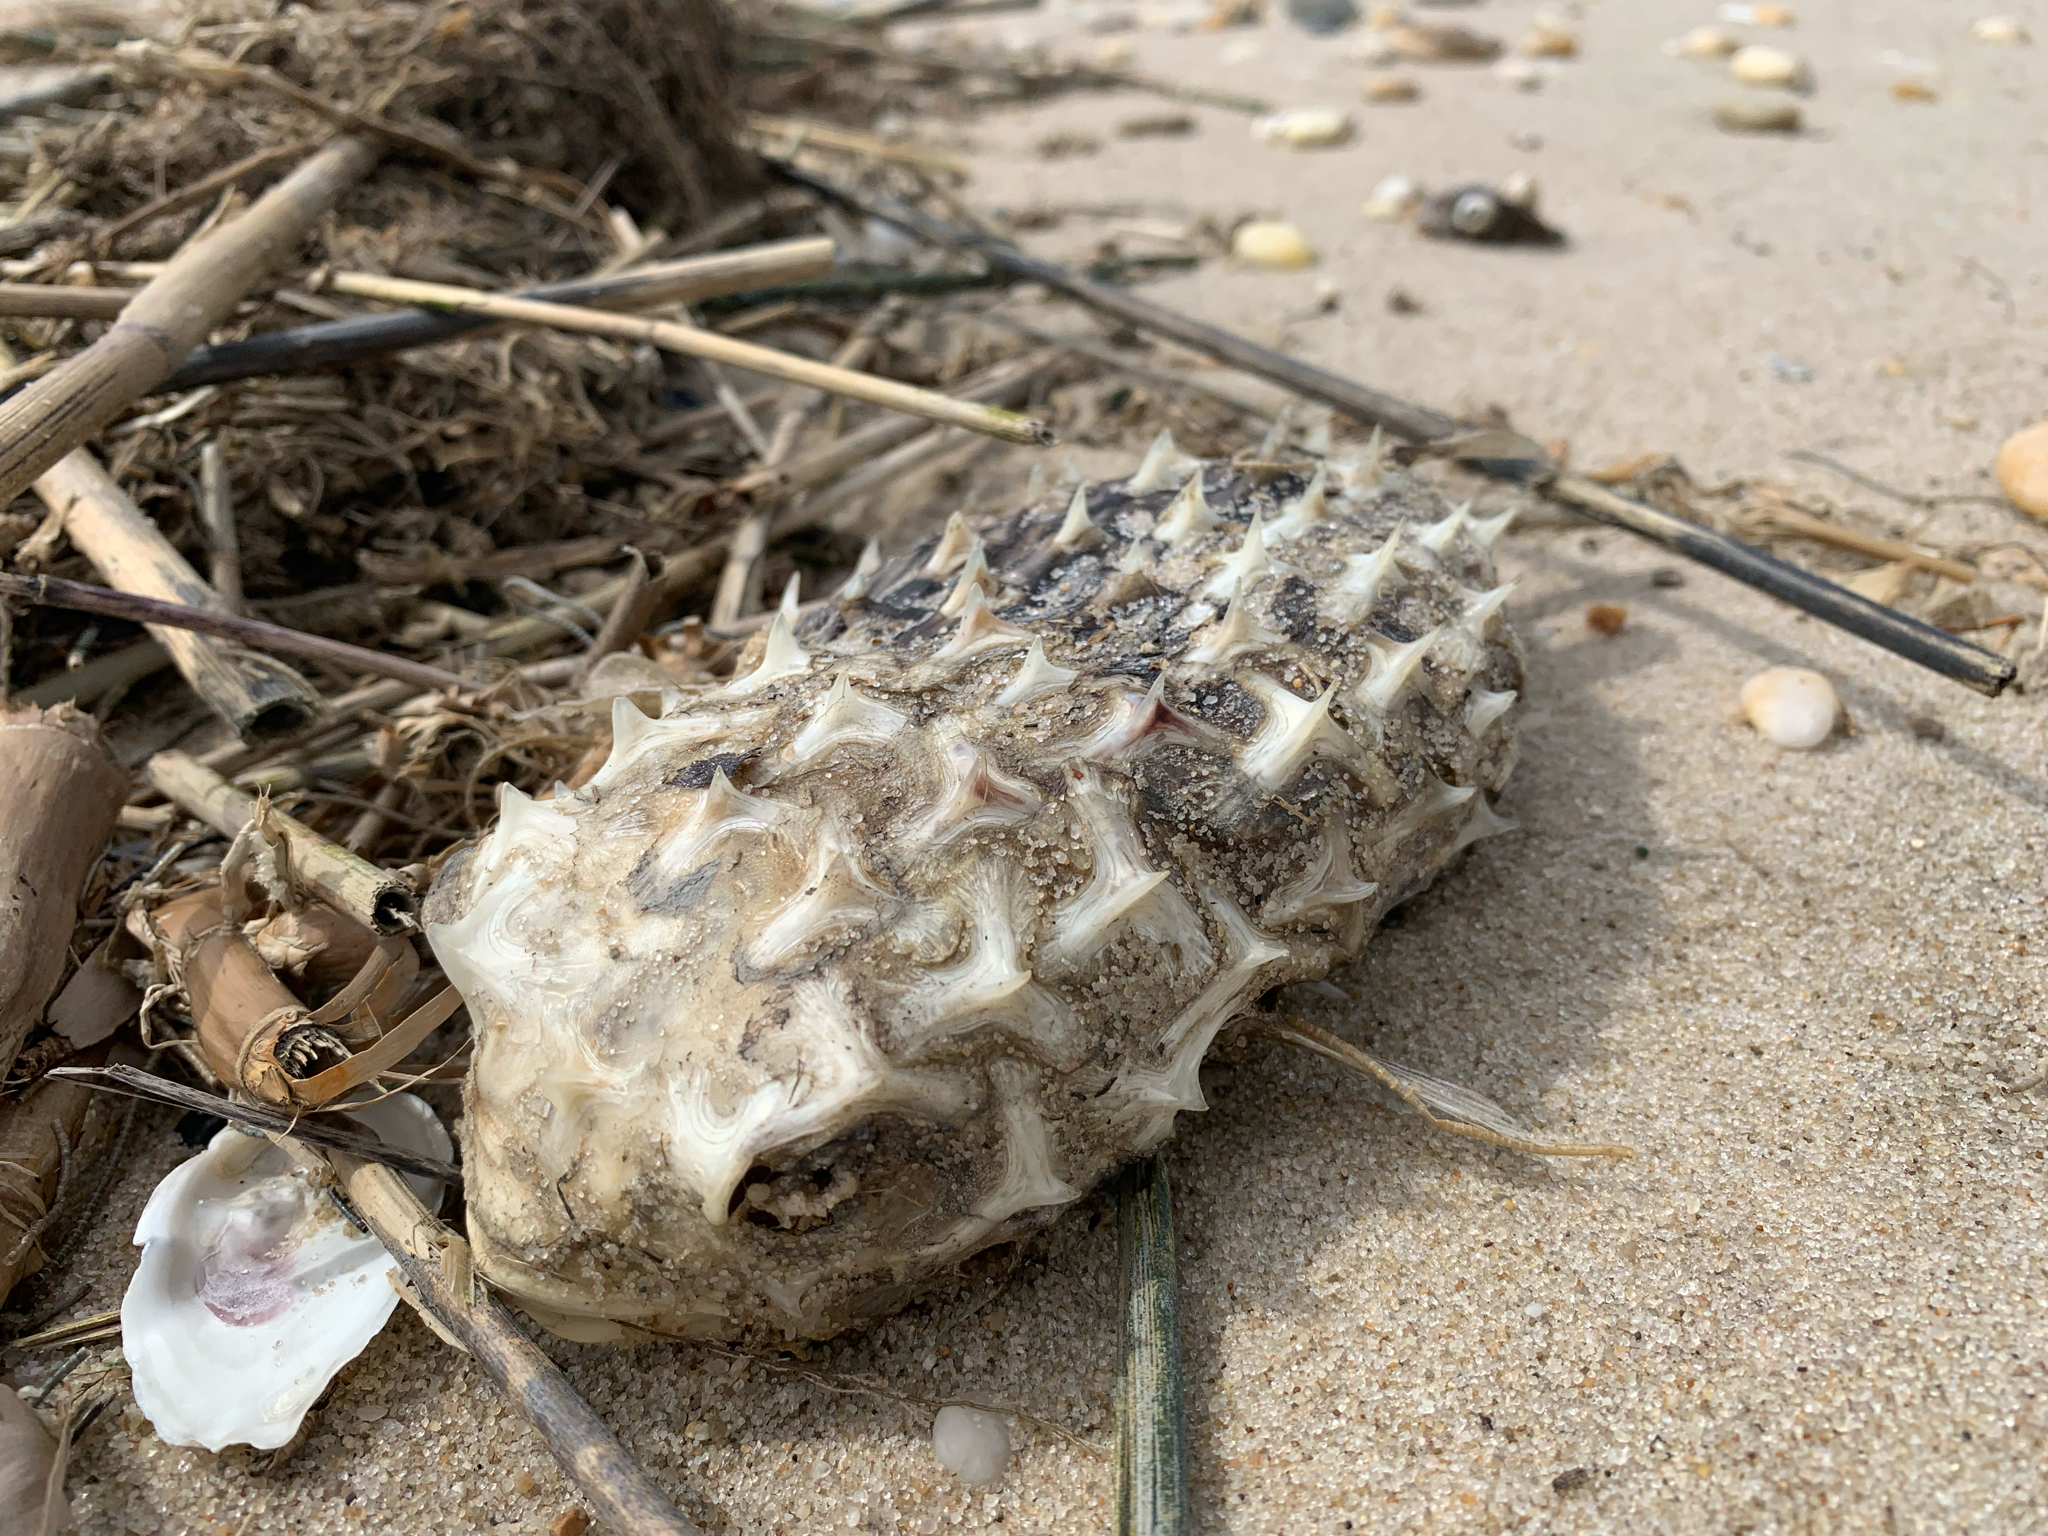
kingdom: Animalia
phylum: Chordata
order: Tetraodontiformes
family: Diodontidae
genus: Chilomycterus
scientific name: Chilomycterus schoepfii
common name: Striped burrfish
